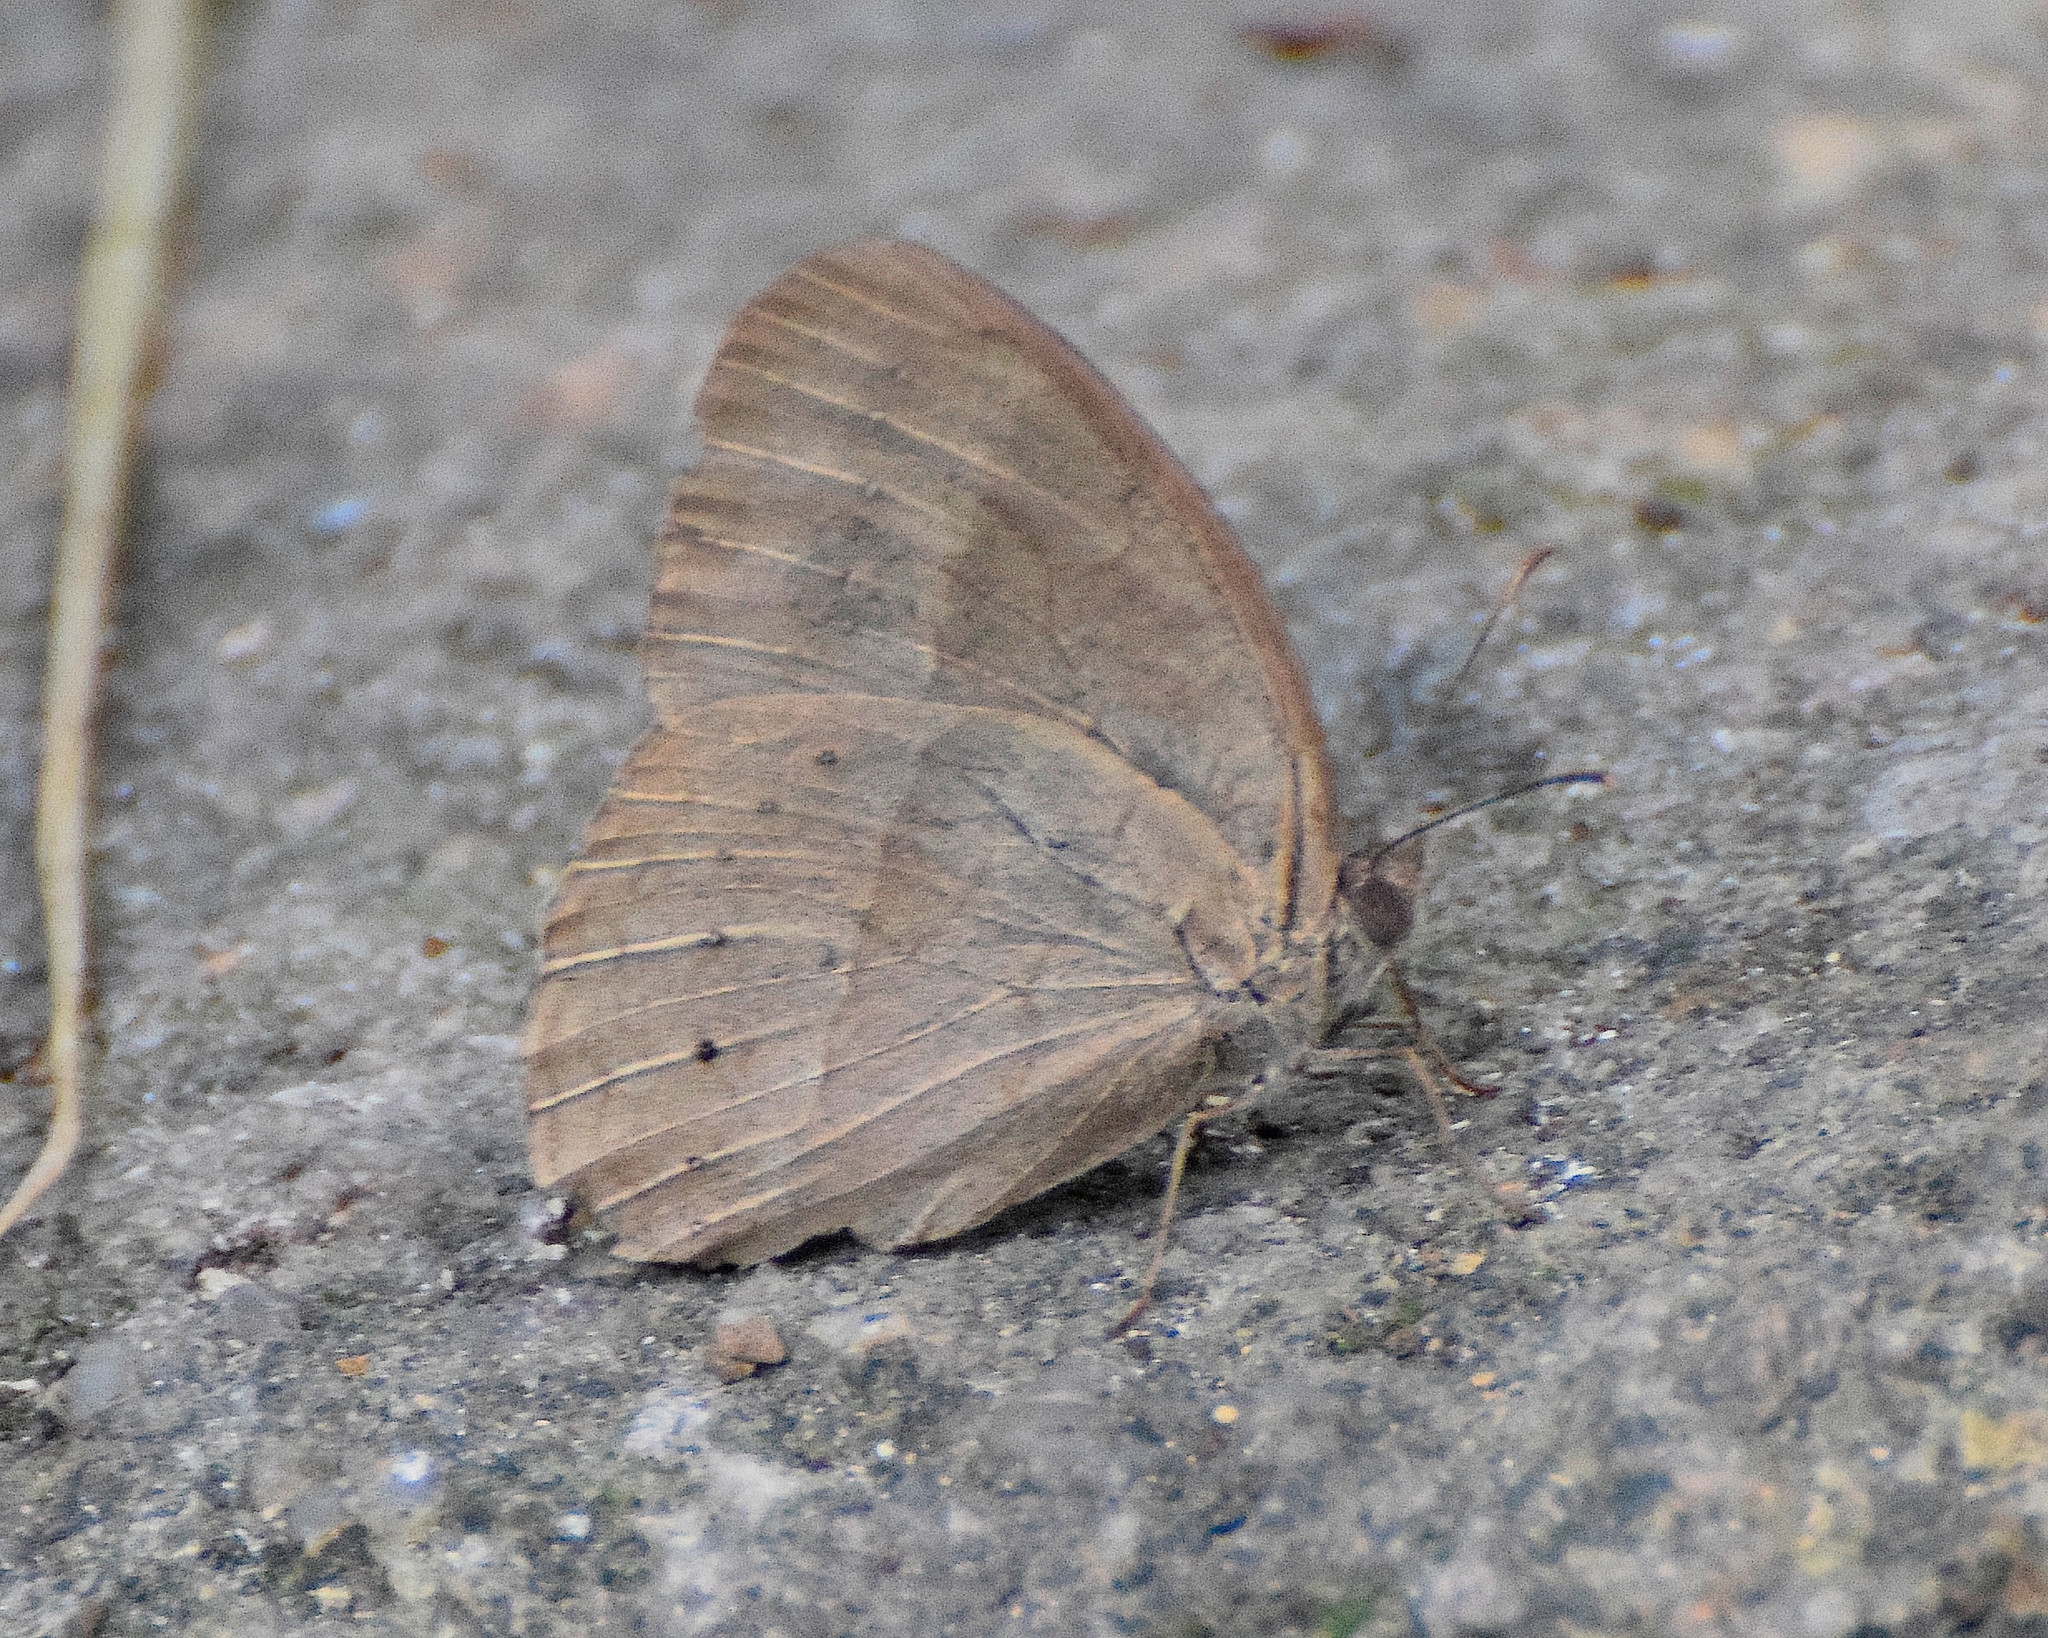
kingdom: Animalia
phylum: Arthropoda
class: Insecta
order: Lepidoptera
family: Nymphalidae
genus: Mycalesis
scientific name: Mycalesis mineus
